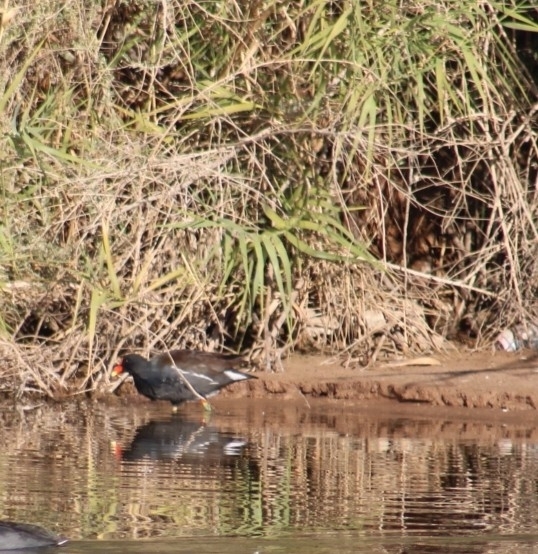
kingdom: Animalia
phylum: Chordata
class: Aves
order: Gruiformes
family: Rallidae
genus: Gallinula
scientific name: Gallinula chloropus
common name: Common moorhen
